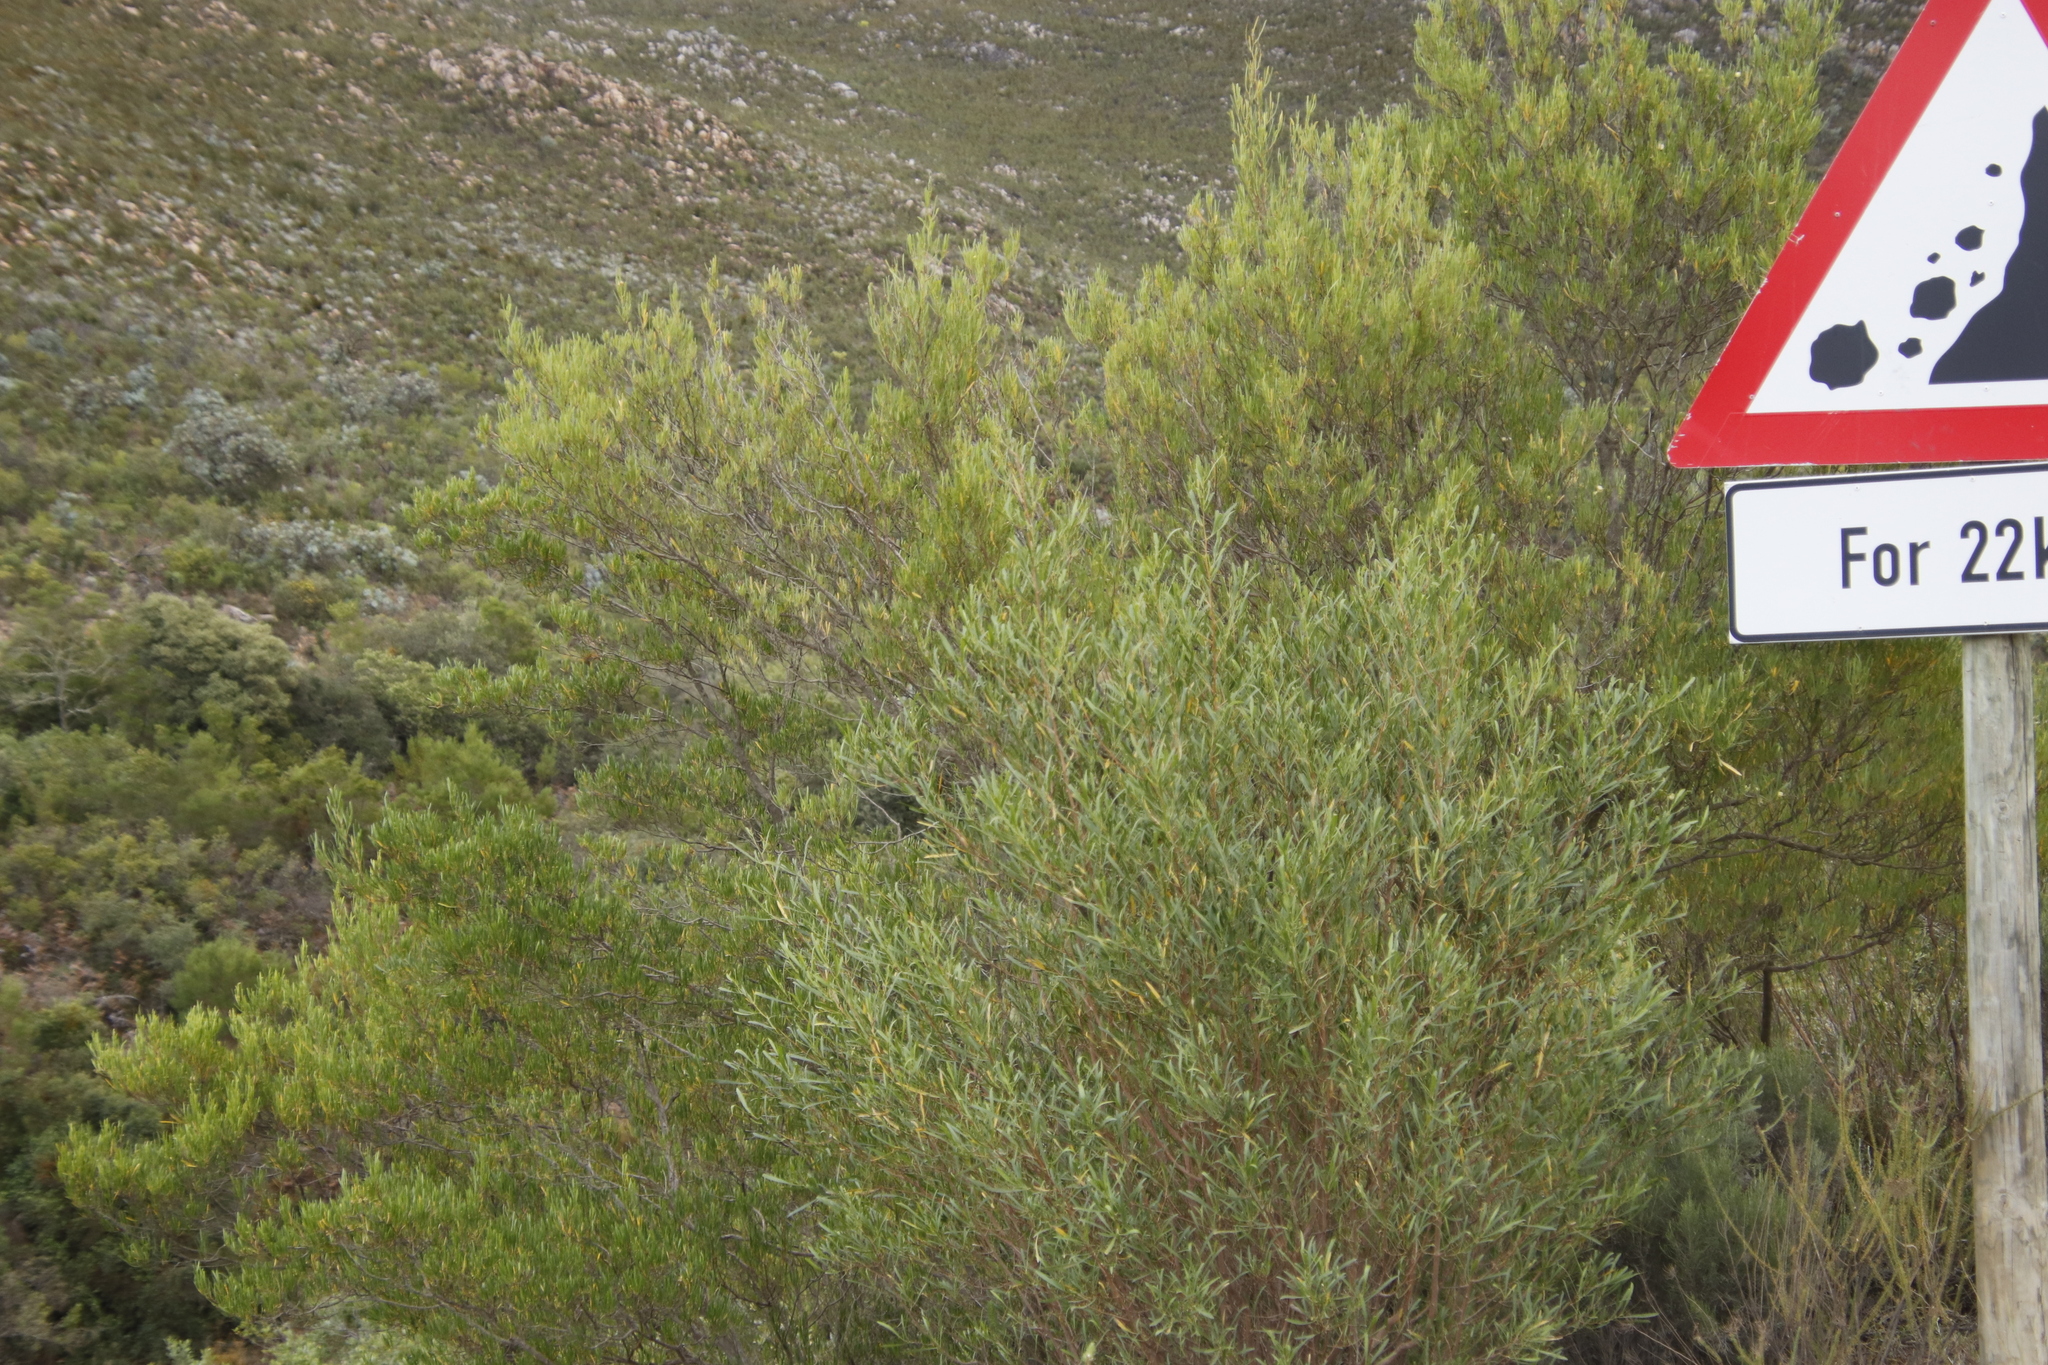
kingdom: Plantae
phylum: Tracheophyta
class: Magnoliopsida
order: Sapindales
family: Sapindaceae
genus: Dodonaea
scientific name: Dodonaea viscosa
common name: Hopbush
